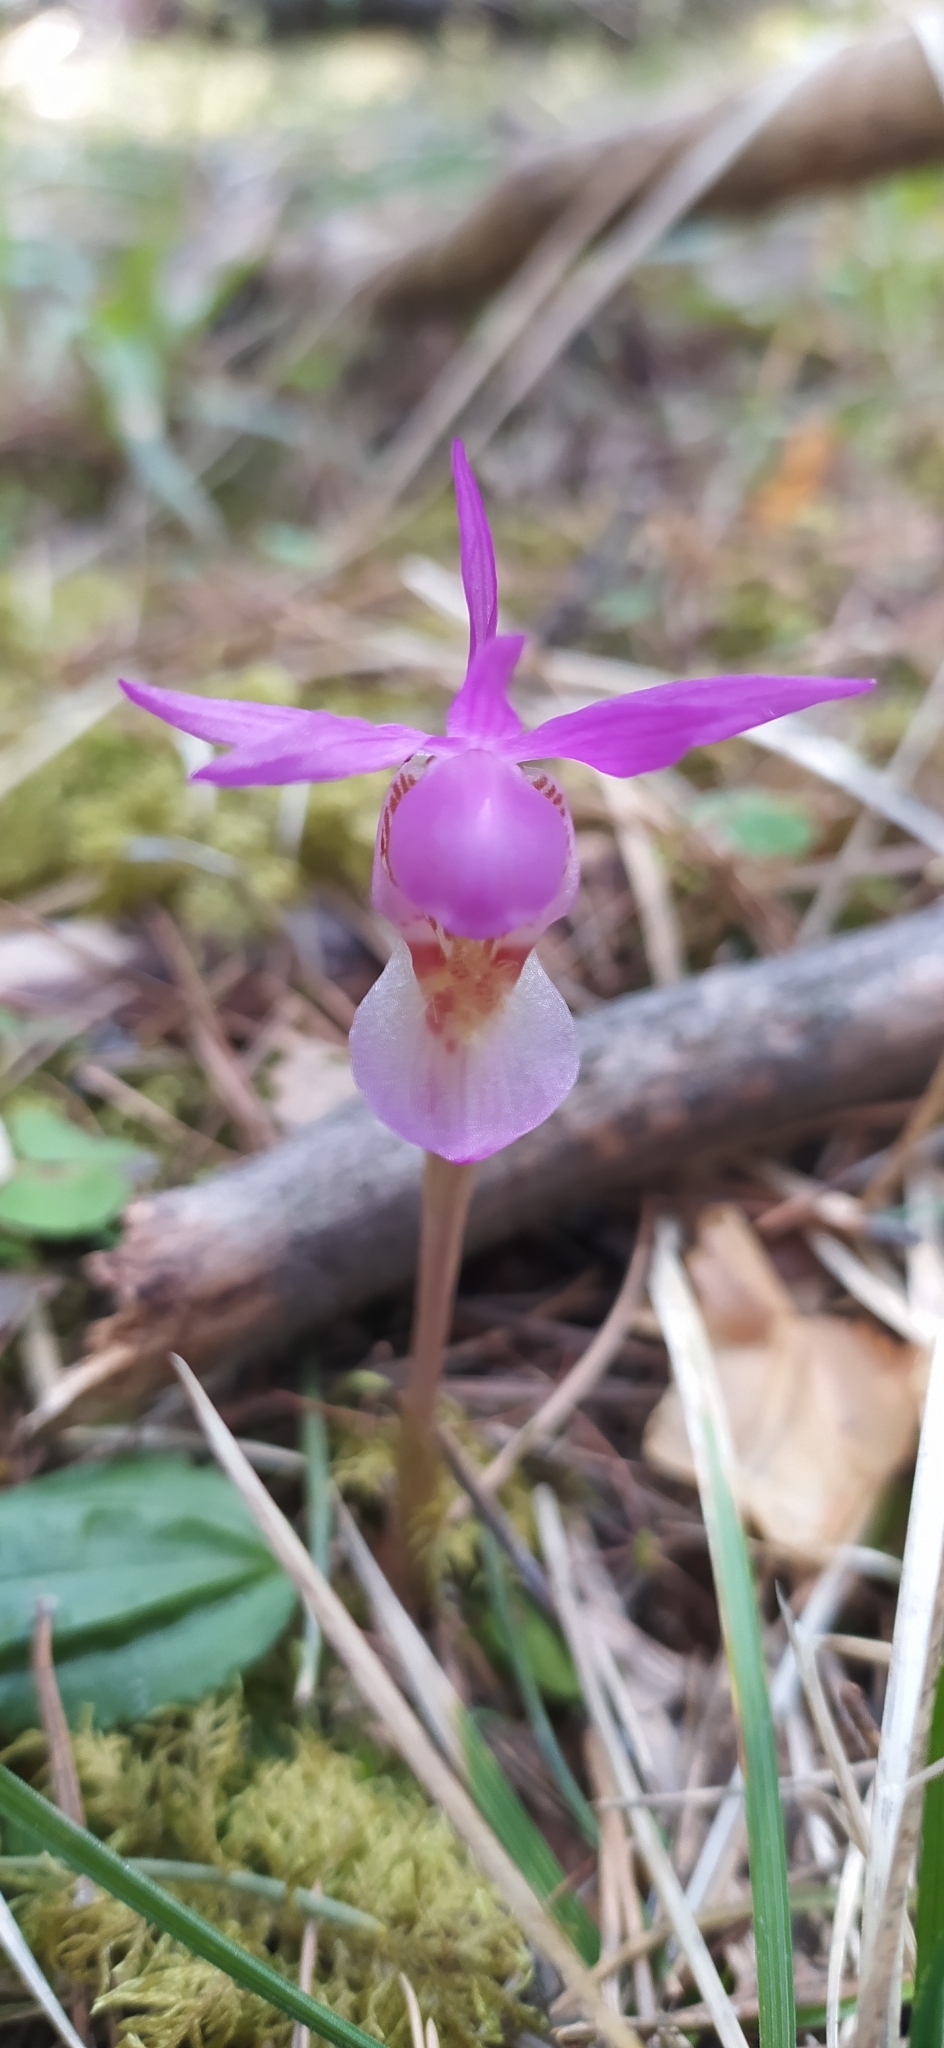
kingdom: Plantae
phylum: Tracheophyta
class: Liliopsida
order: Asparagales
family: Orchidaceae
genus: Calypso
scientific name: Calypso bulbosa
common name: Calypso
